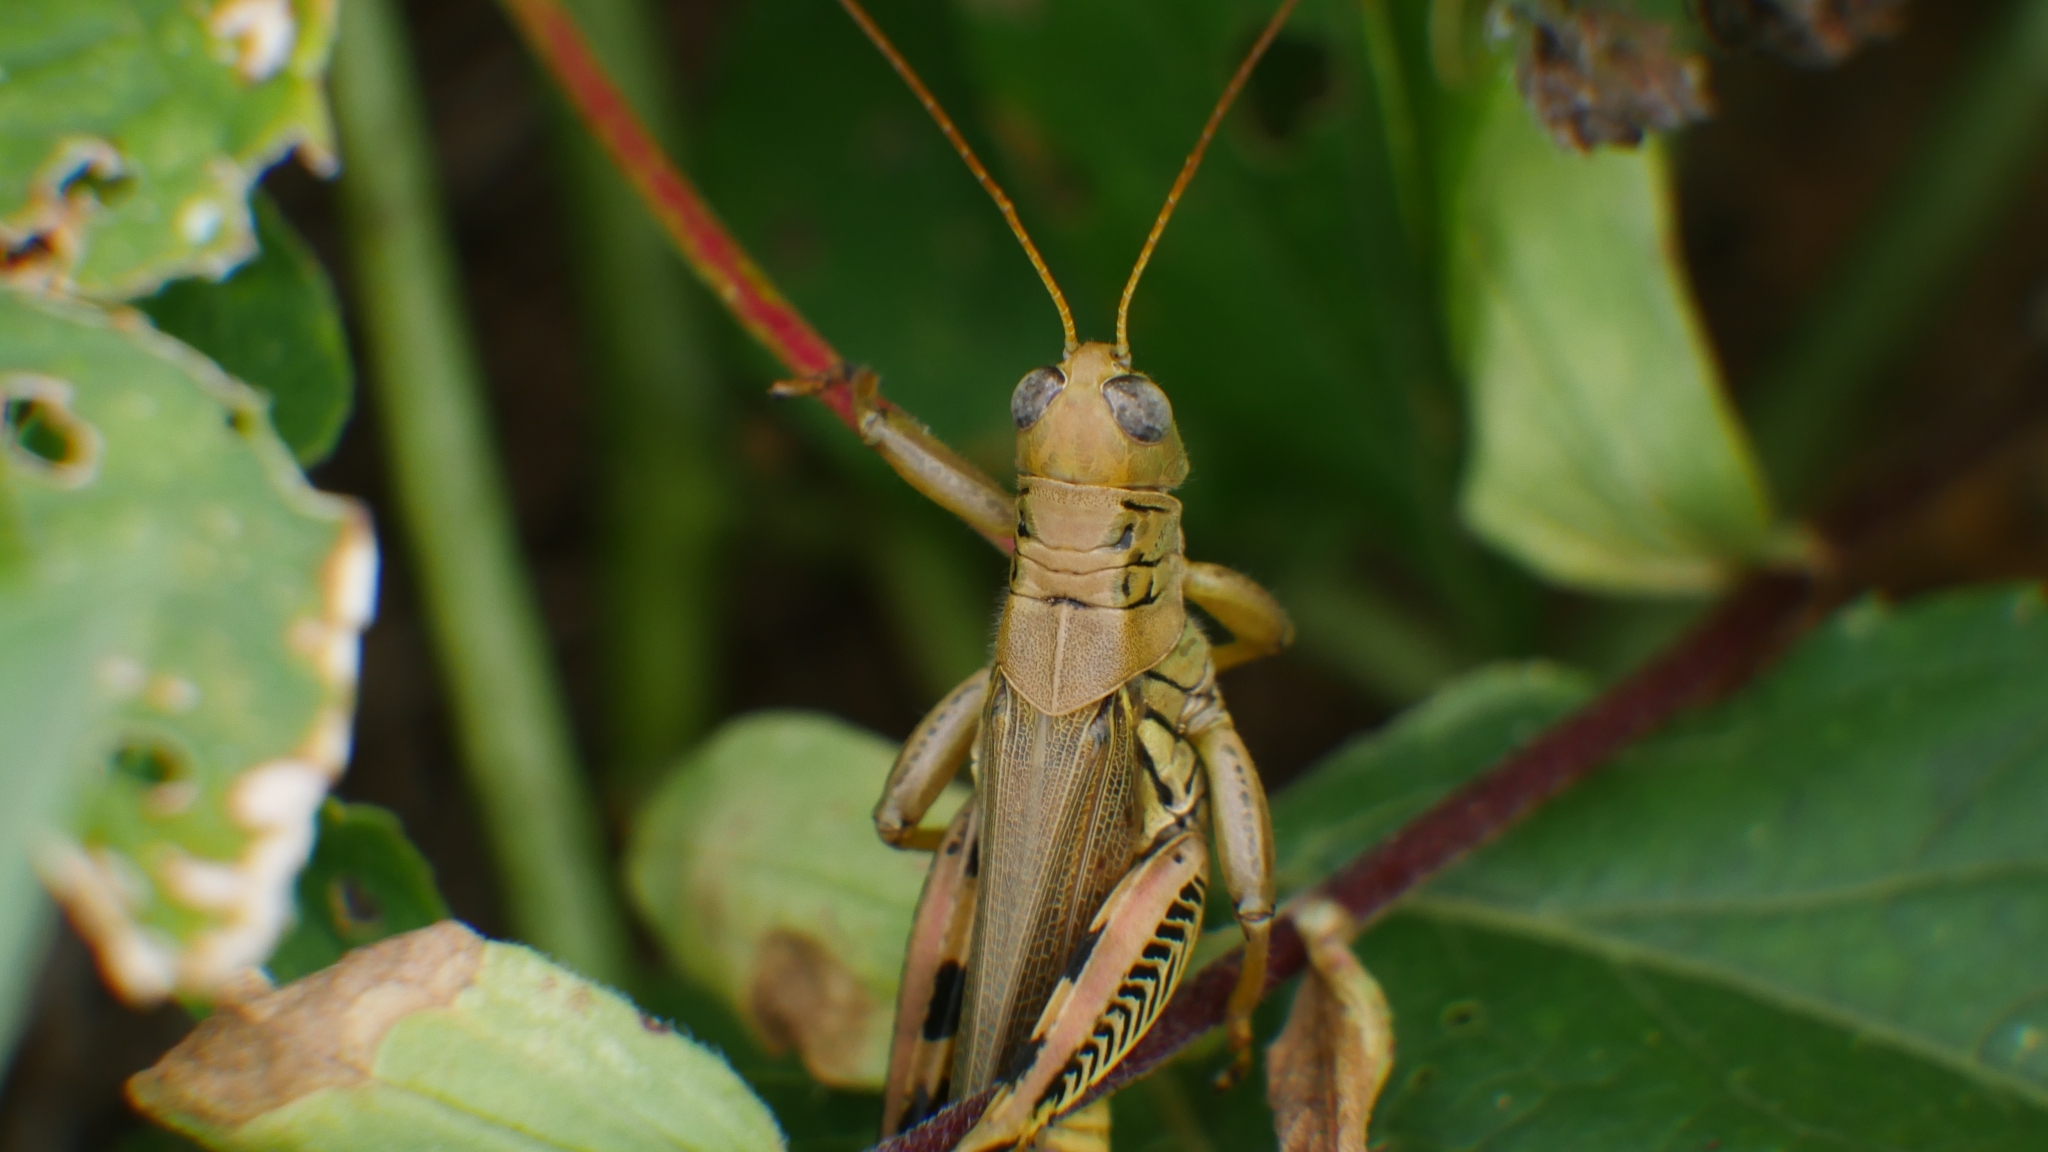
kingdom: Animalia
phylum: Arthropoda
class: Insecta
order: Orthoptera
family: Acrididae
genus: Melanoplus
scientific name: Melanoplus differentialis
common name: Differential grasshopper
